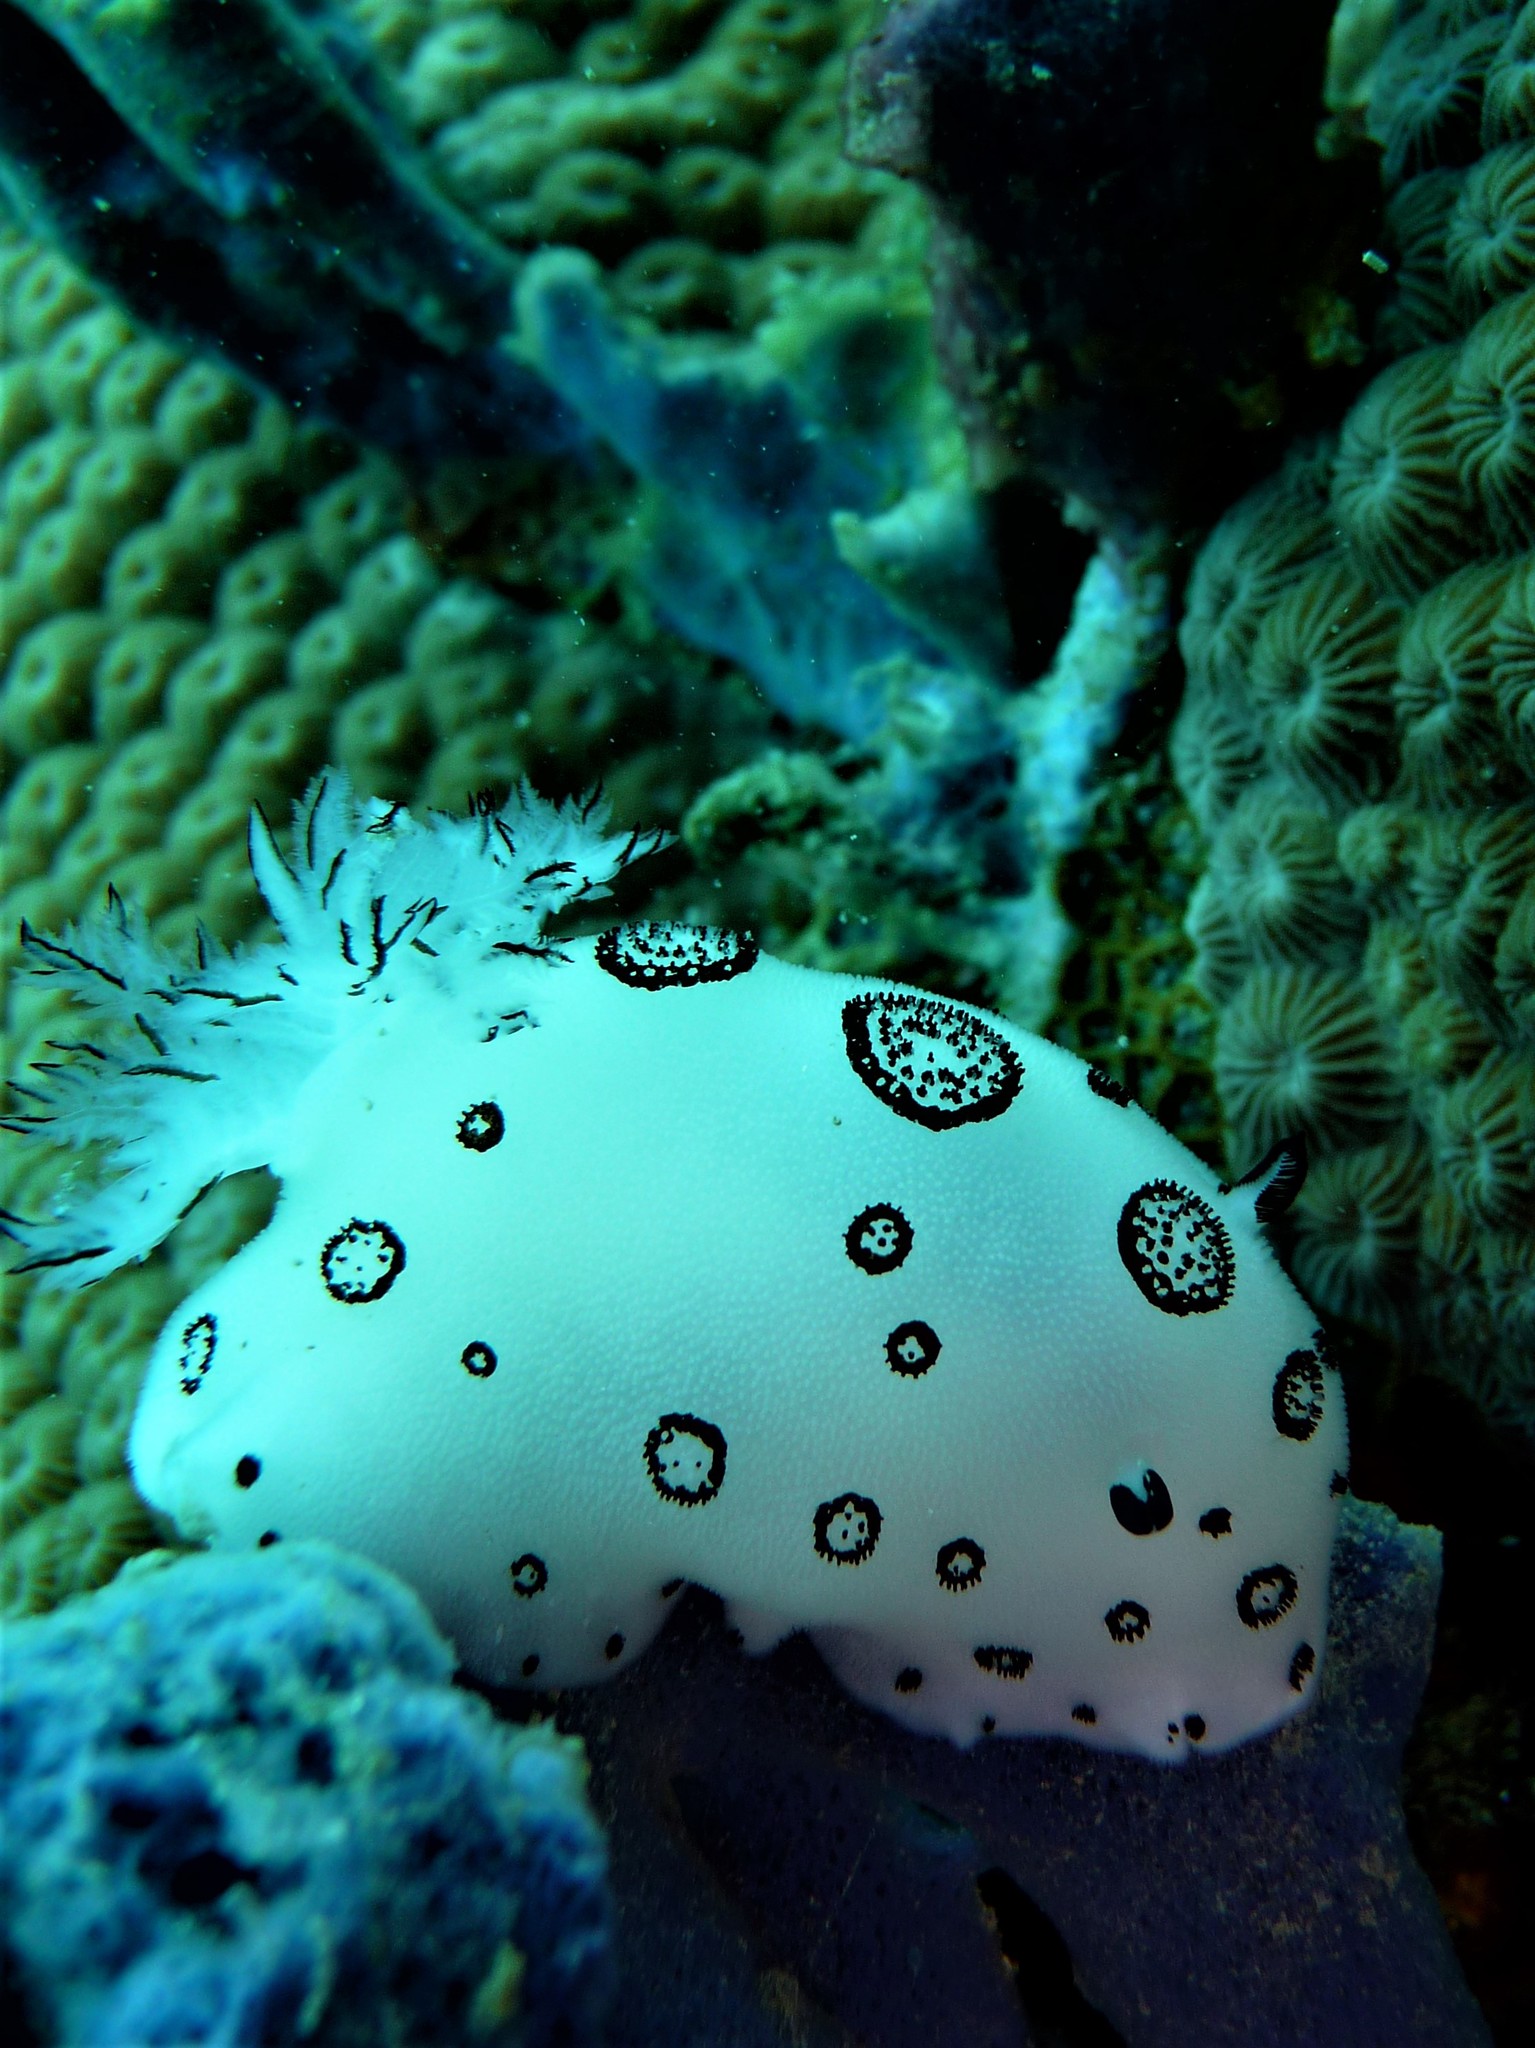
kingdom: Animalia
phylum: Mollusca
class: Gastropoda
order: Nudibranchia
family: Discodorididae
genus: Jorunna
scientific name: Jorunna funebris
